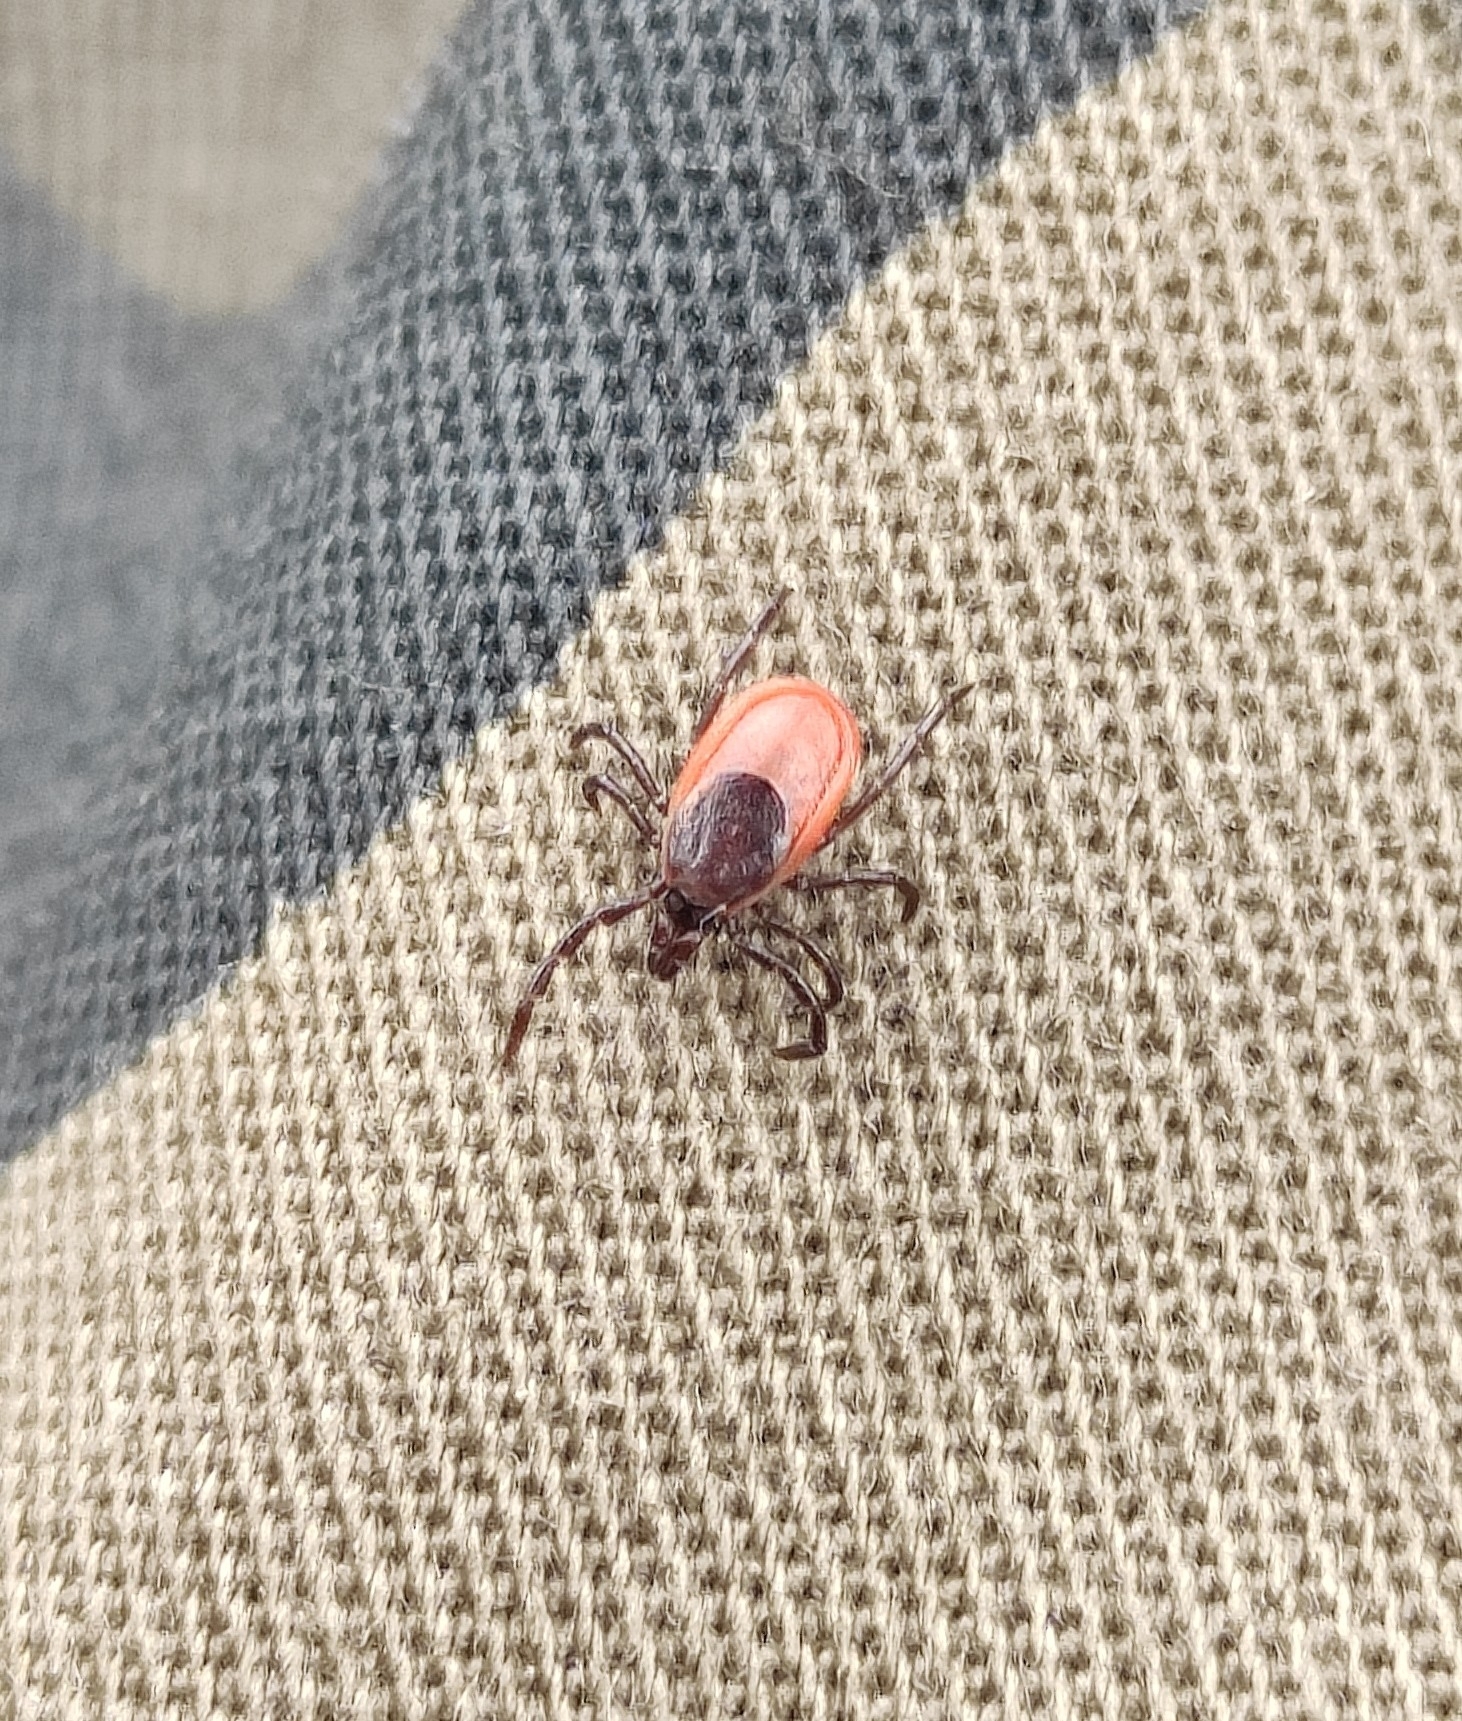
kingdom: Animalia
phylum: Arthropoda
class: Arachnida
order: Ixodida
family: Ixodidae
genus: Ixodes
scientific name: Ixodes persulcatus
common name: Taiga tick
